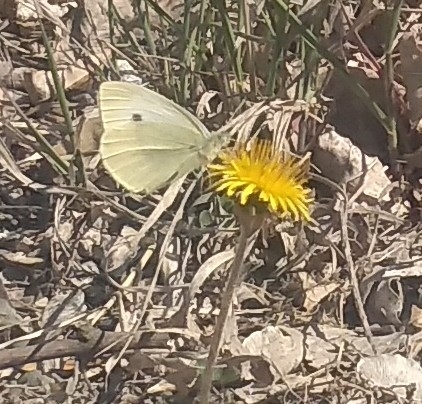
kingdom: Animalia
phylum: Arthropoda
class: Insecta
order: Lepidoptera
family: Pieridae
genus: Pieris
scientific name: Pieris rapae
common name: Small white
